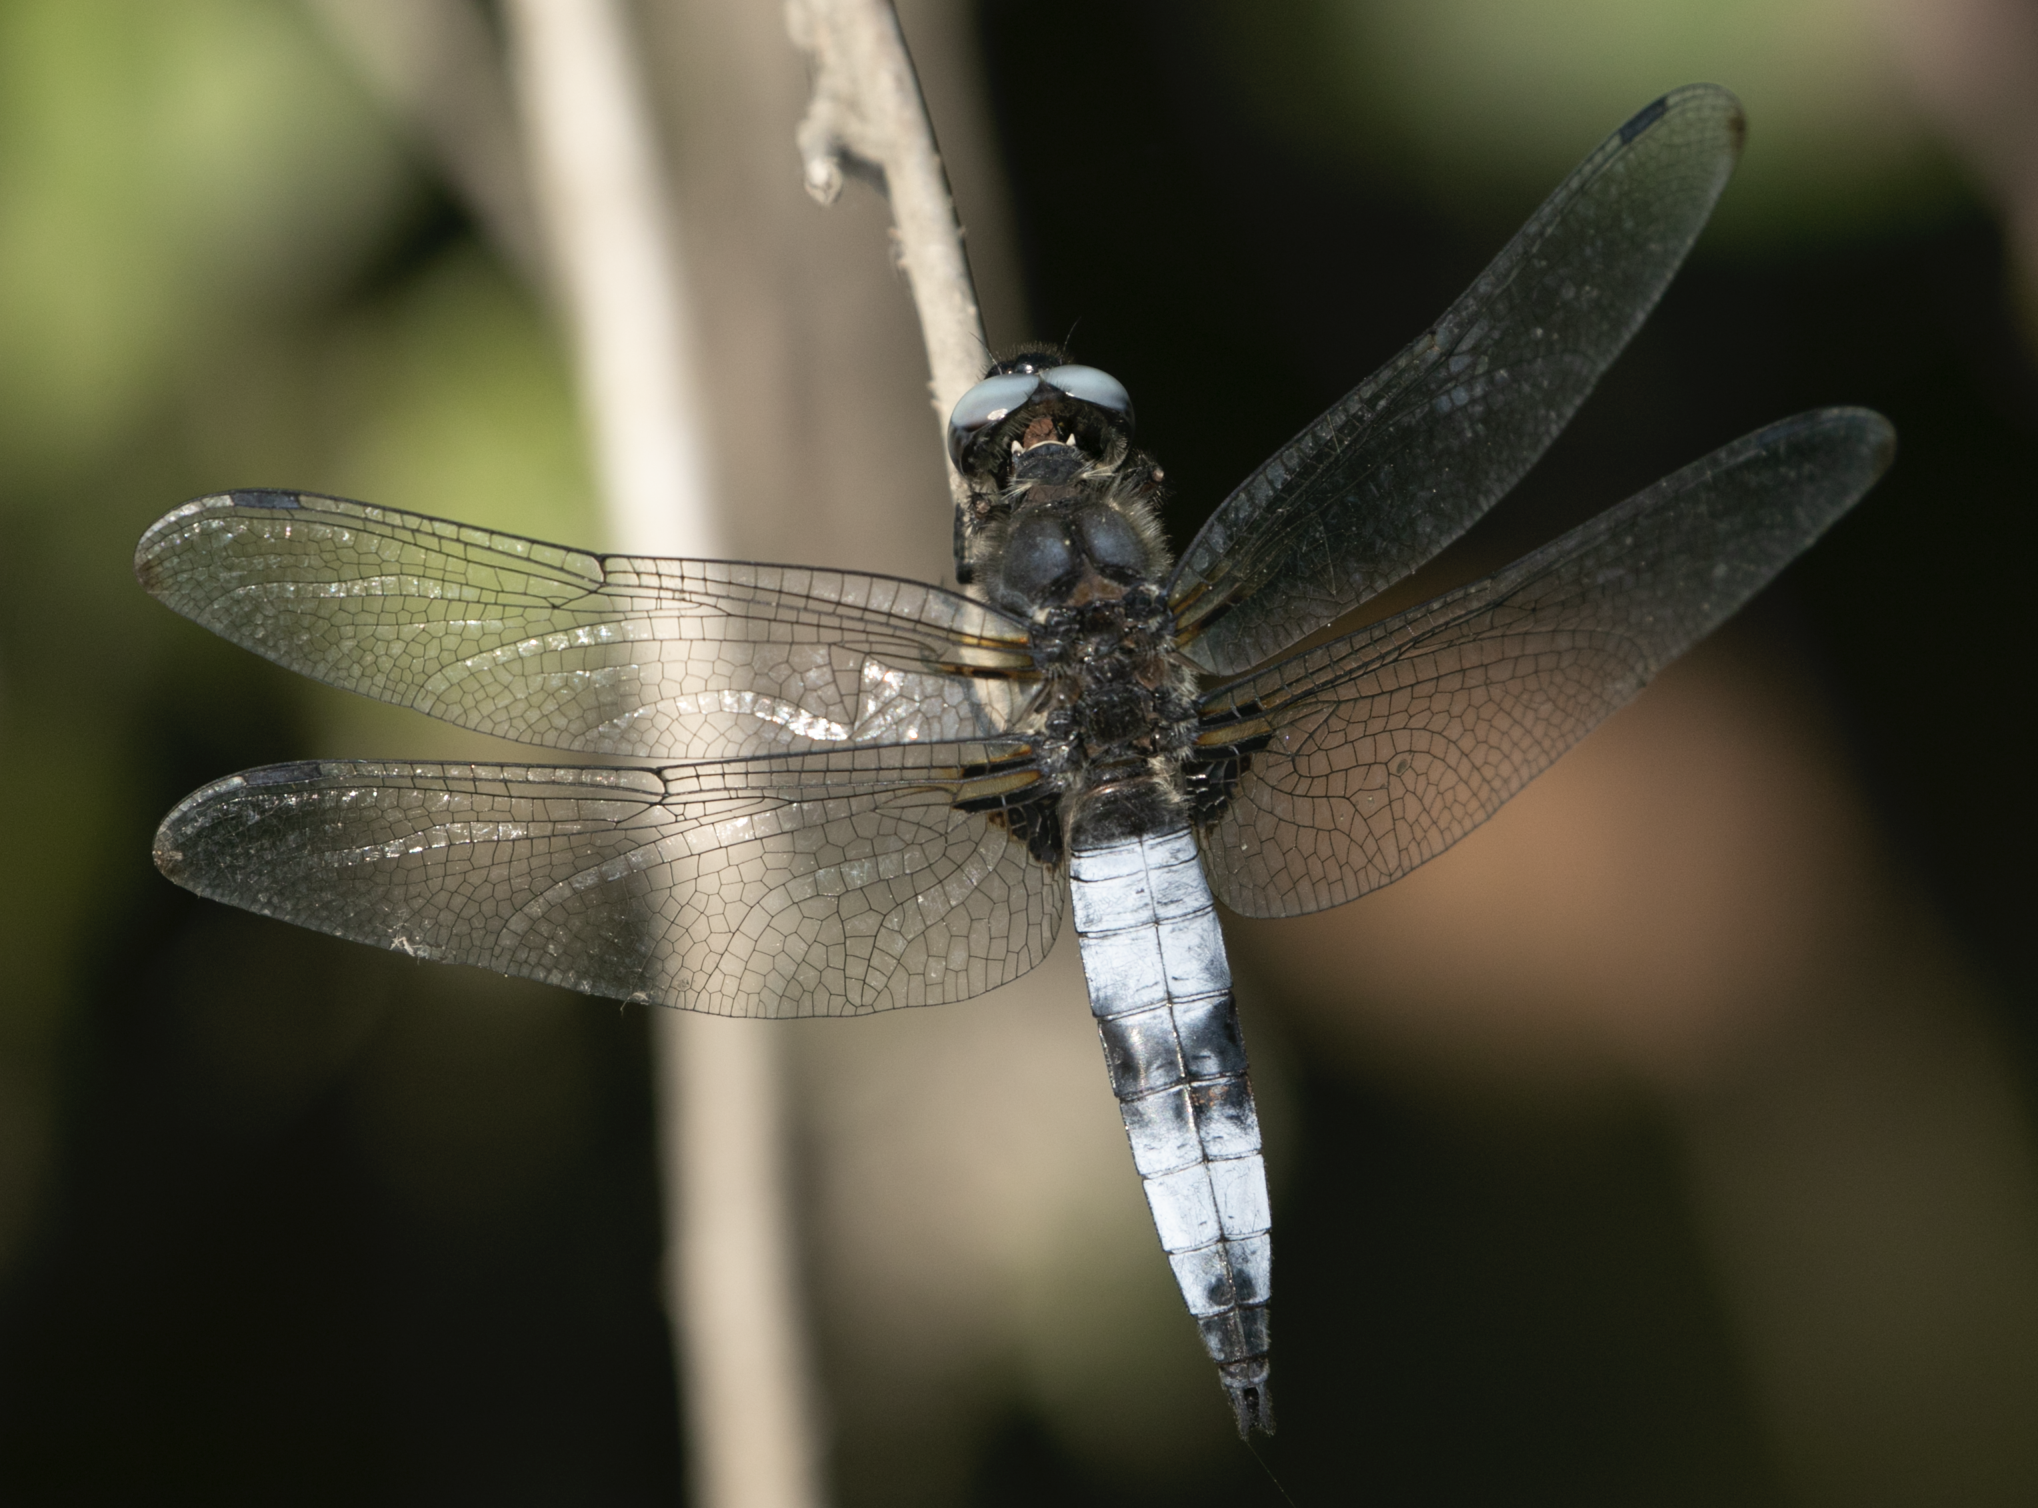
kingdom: Animalia
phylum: Arthropoda
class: Insecta
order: Odonata
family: Libellulidae
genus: Libellula
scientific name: Libellula fulva
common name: Blue chaser
